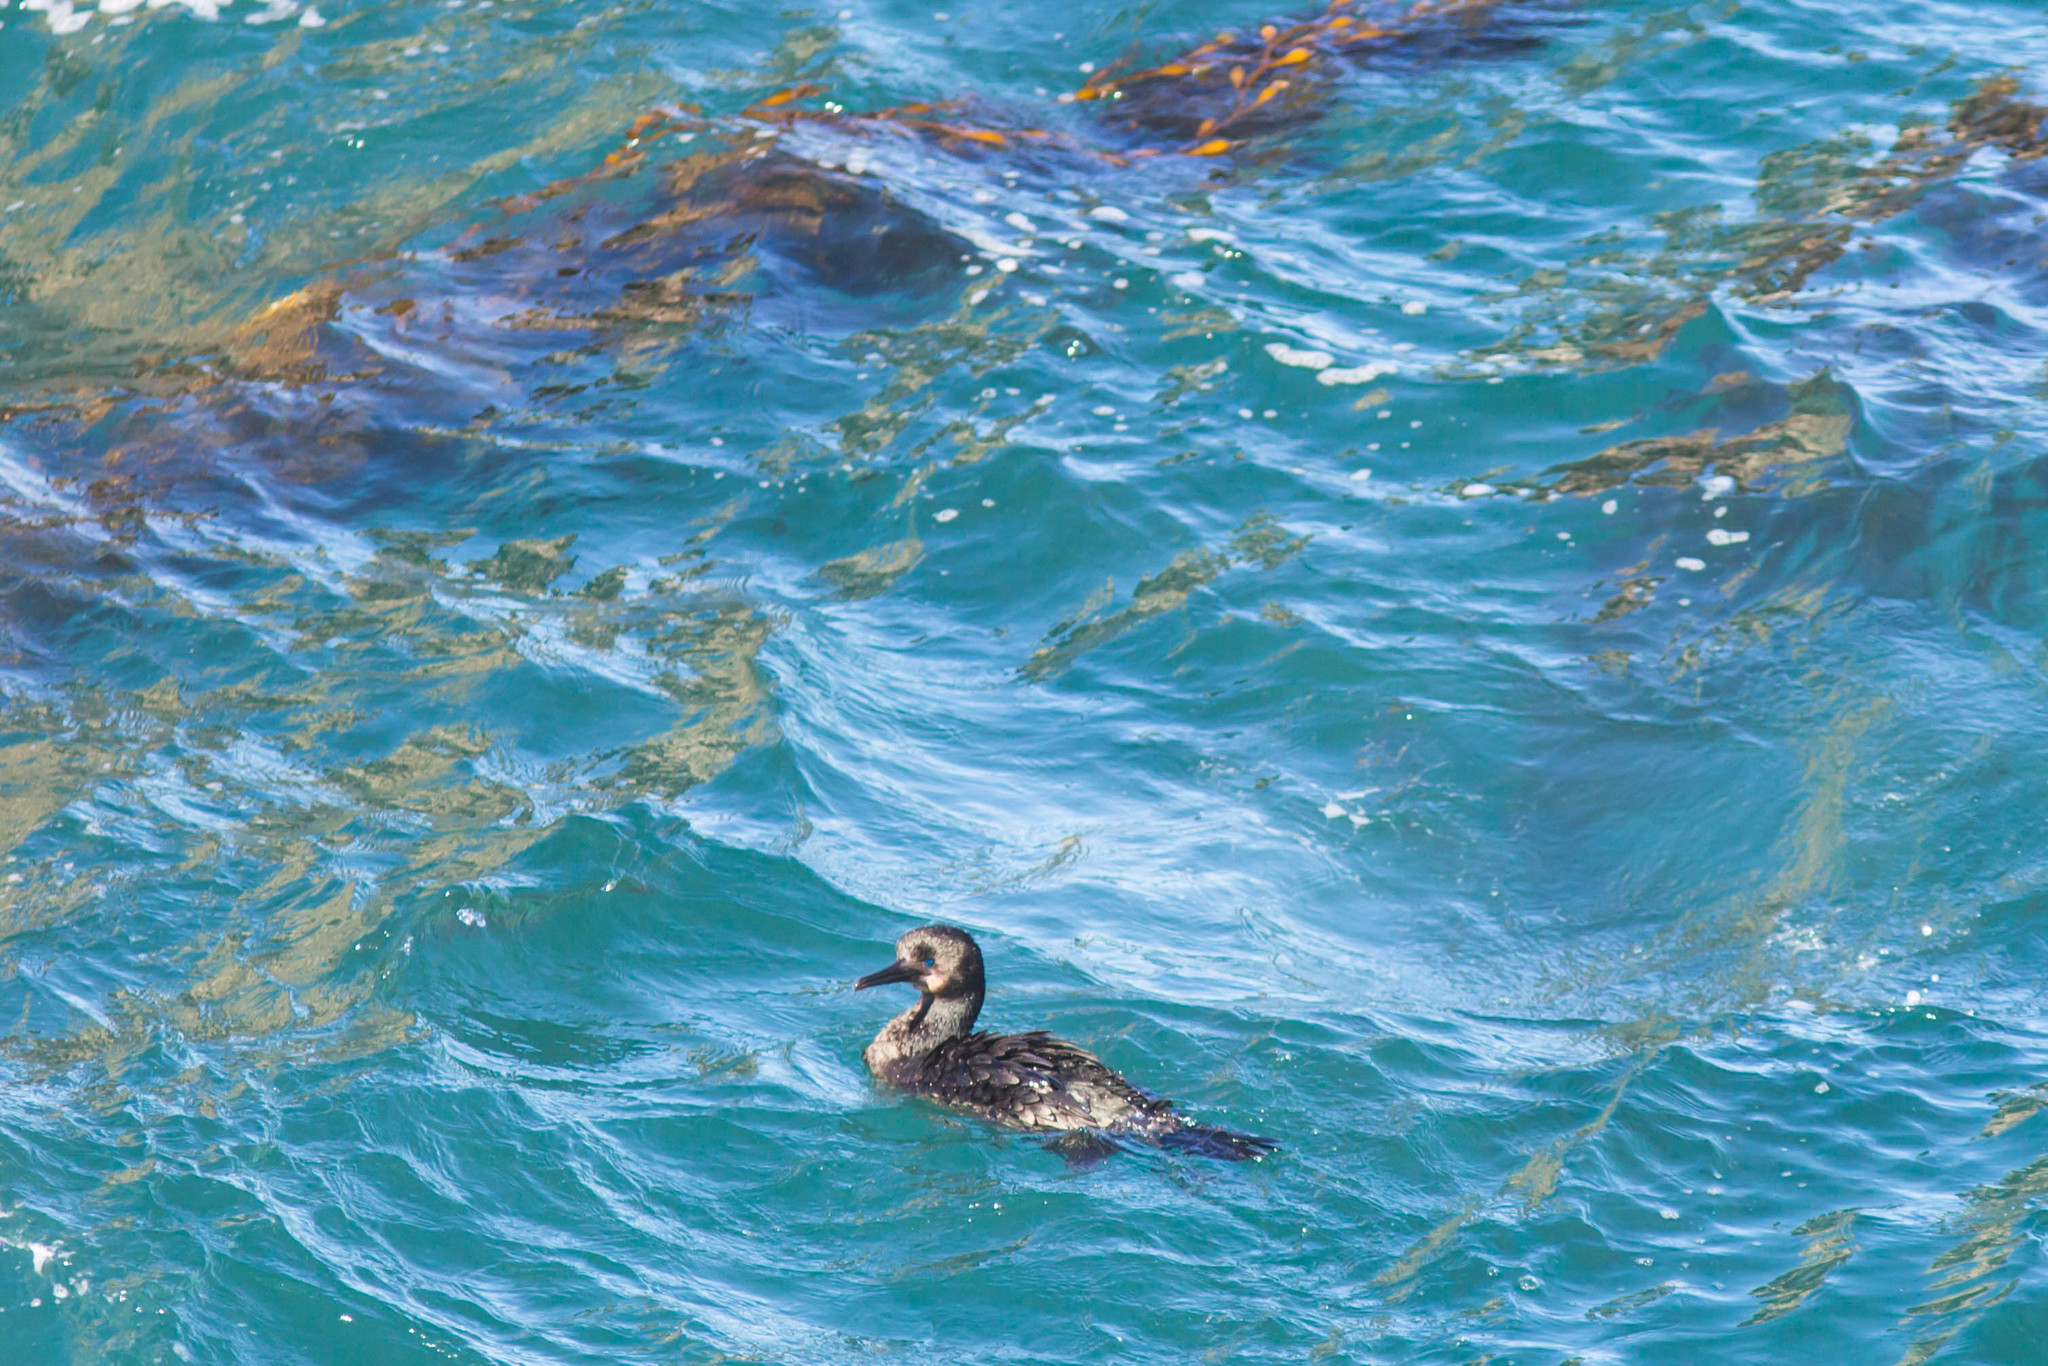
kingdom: Animalia
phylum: Chordata
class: Aves
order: Suliformes
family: Phalacrocoracidae
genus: Urile
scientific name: Urile penicillatus
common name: Brandt's cormorant
